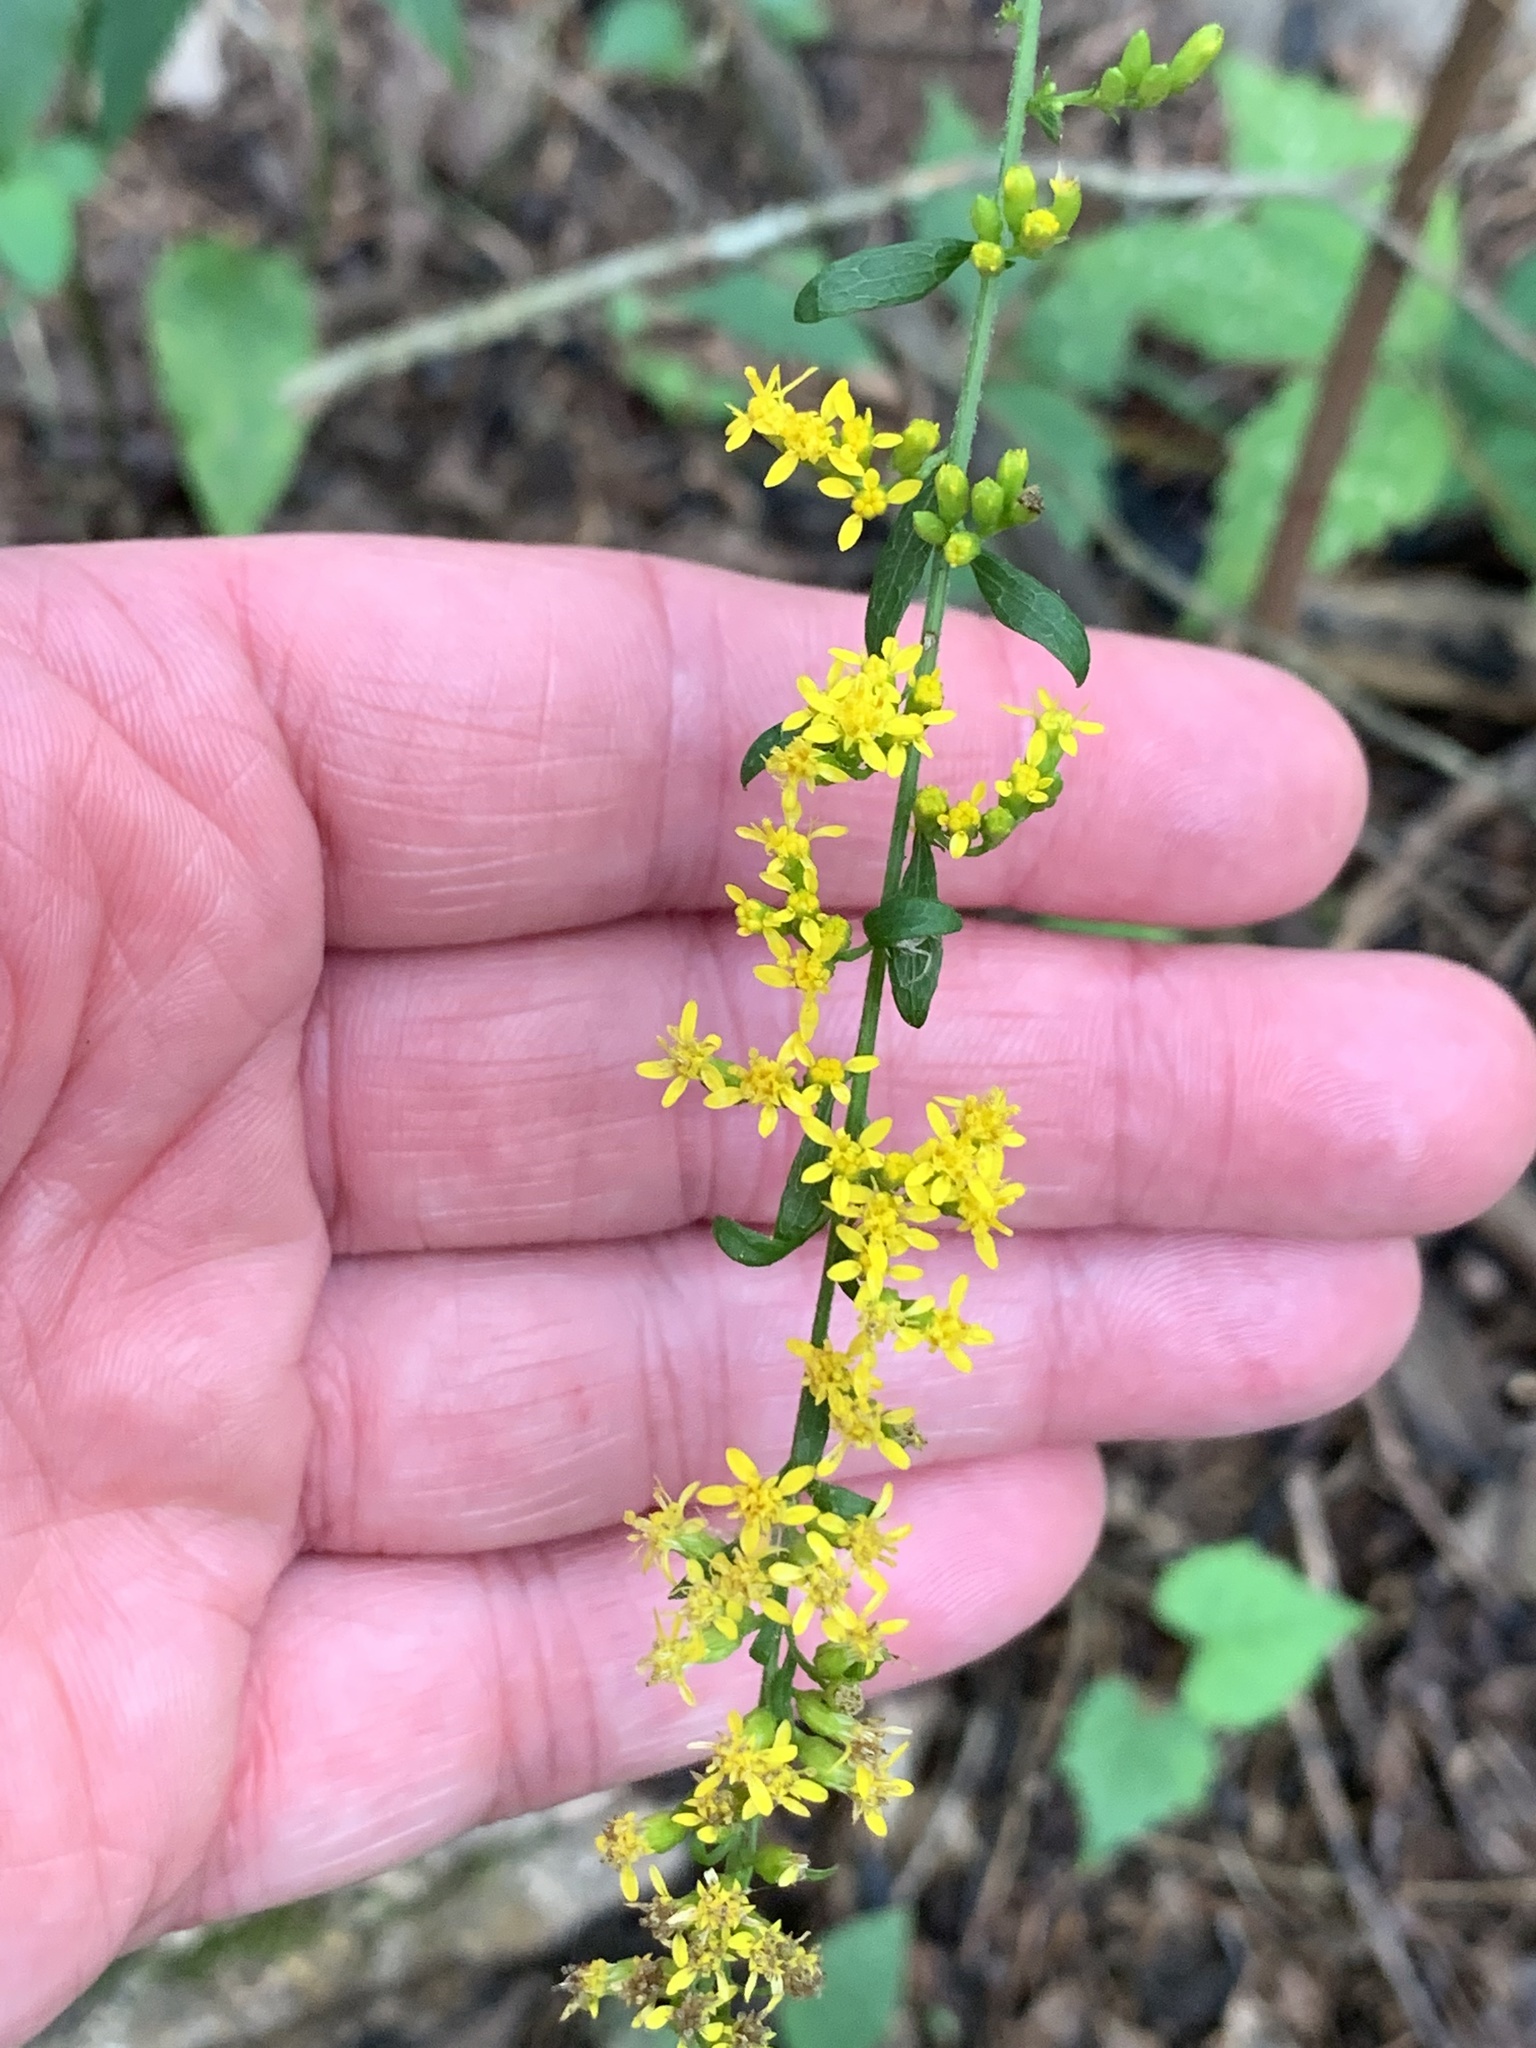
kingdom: Plantae
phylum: Tracheophyta
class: Magnoliopsida
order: Asterales
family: Asteraceae
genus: Solidago
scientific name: Solidago ulmifolia
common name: Elm-leaf goldenrod
